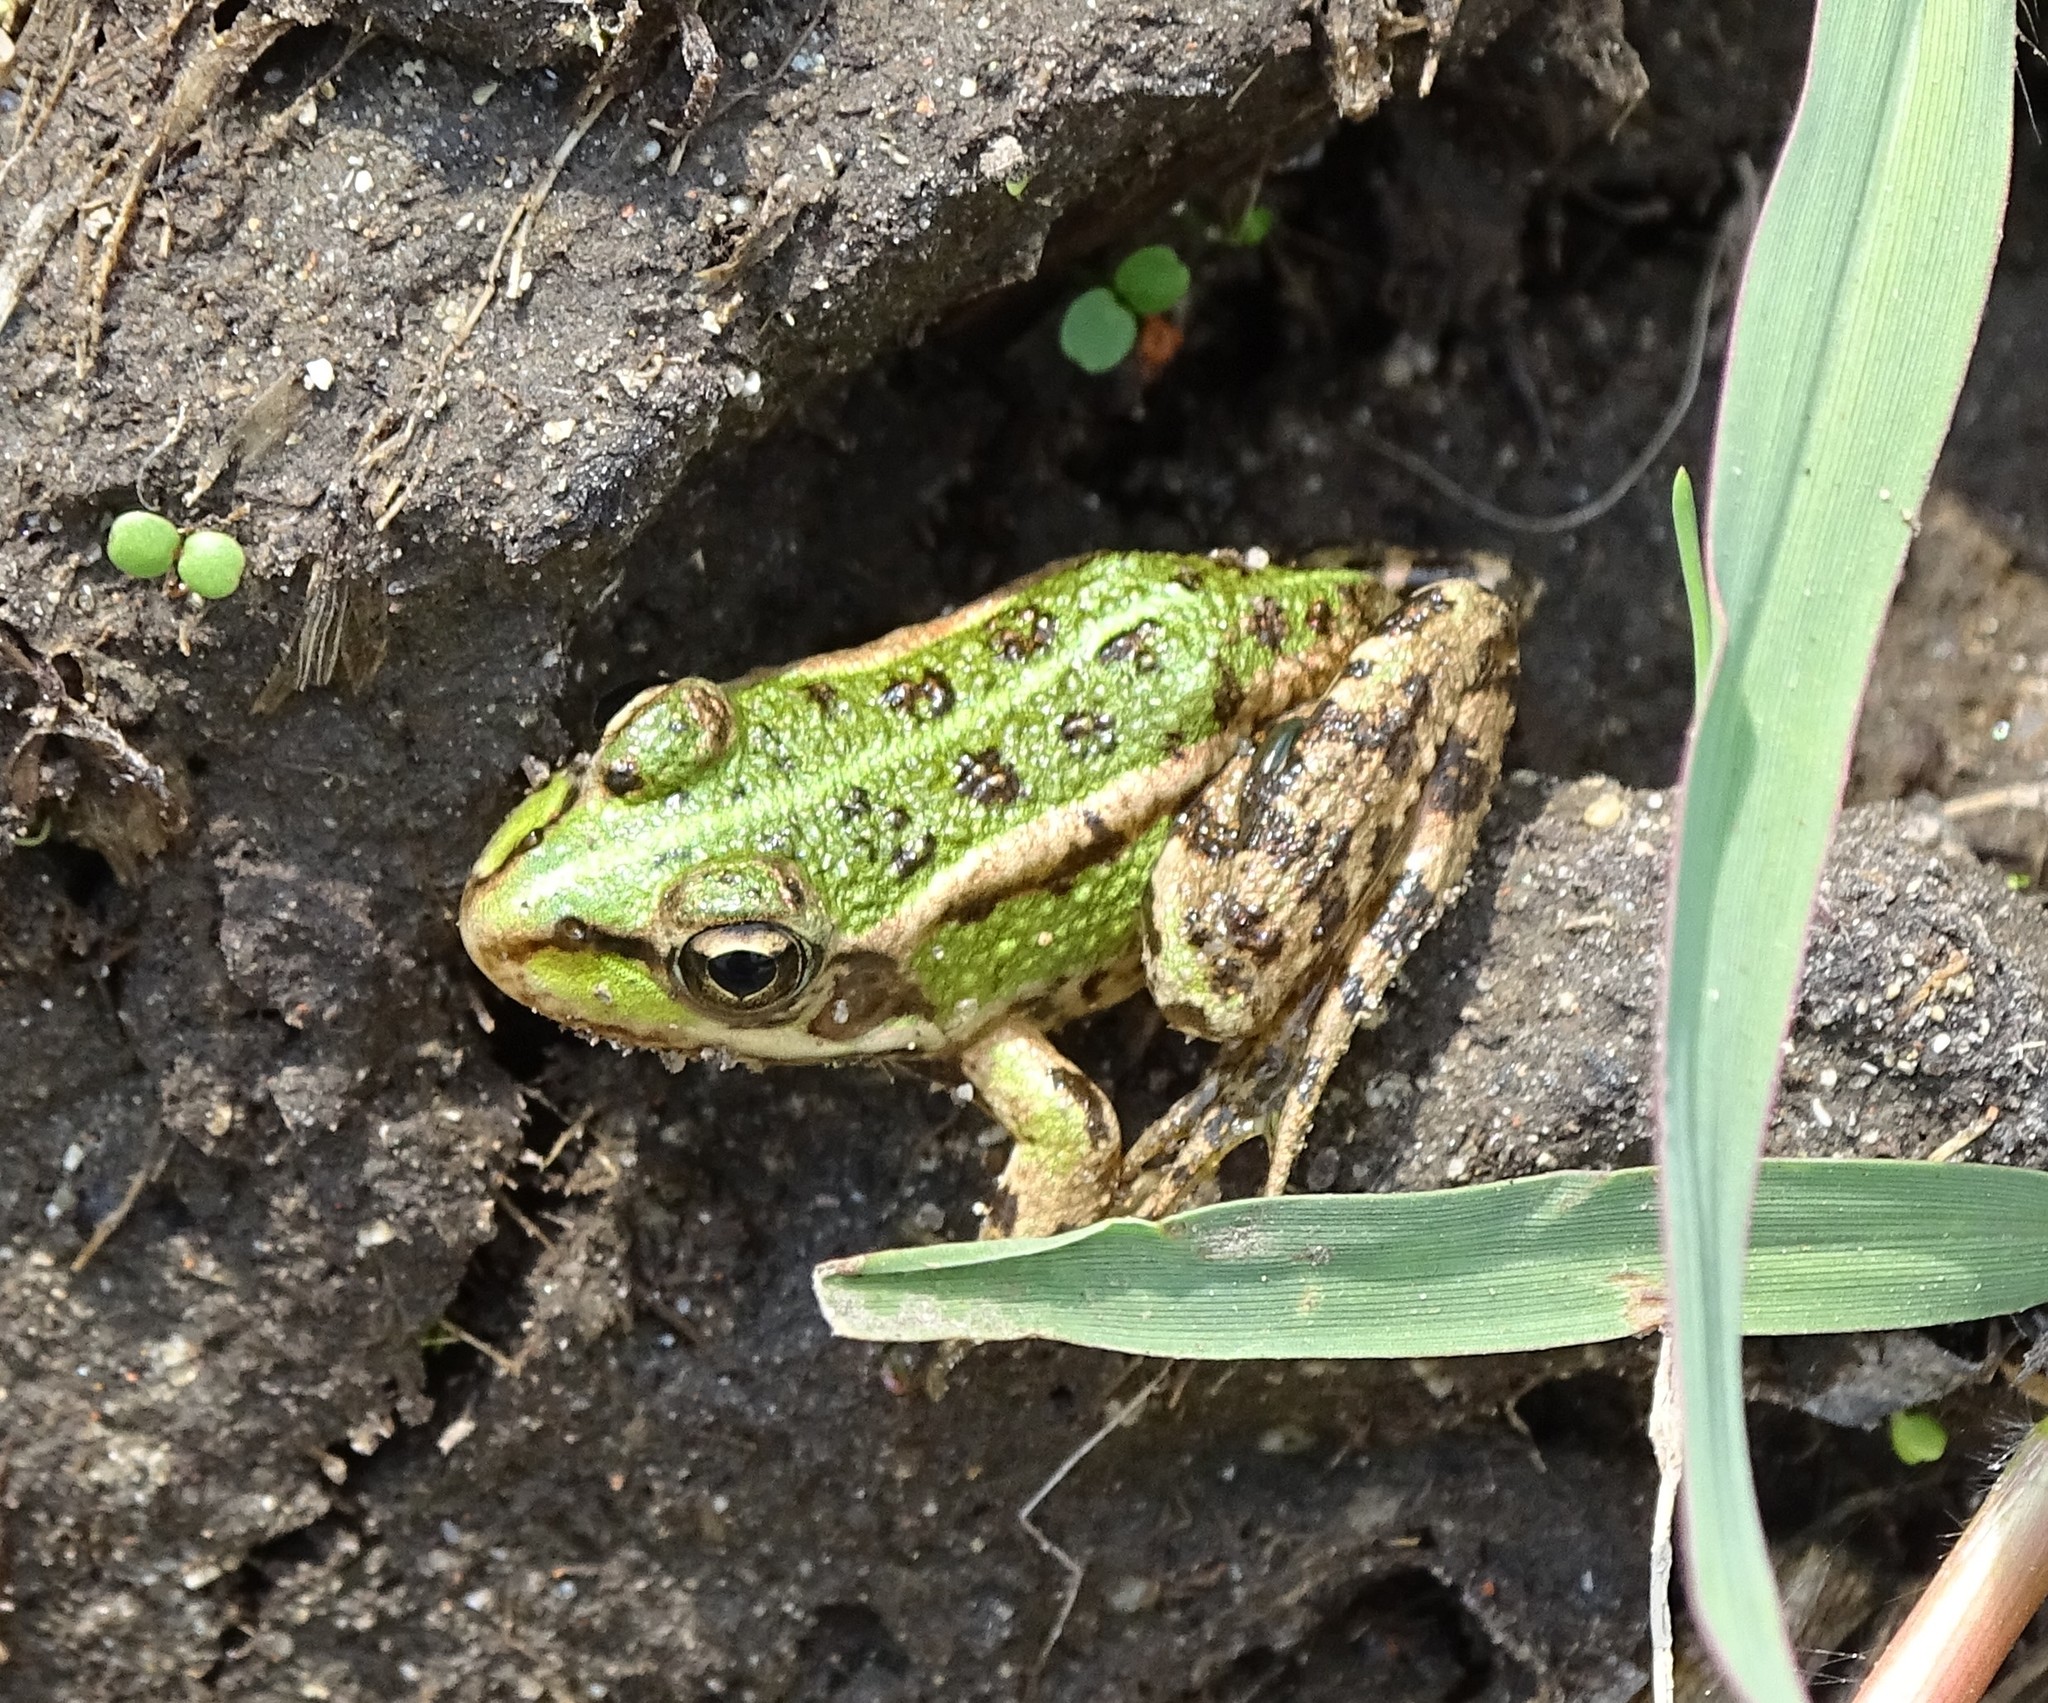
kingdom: Animalia
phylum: Chordata
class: Amphibia
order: Anura
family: Ranidae
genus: Pelophylax
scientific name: Pelophylax perezi
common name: Perez's frog
